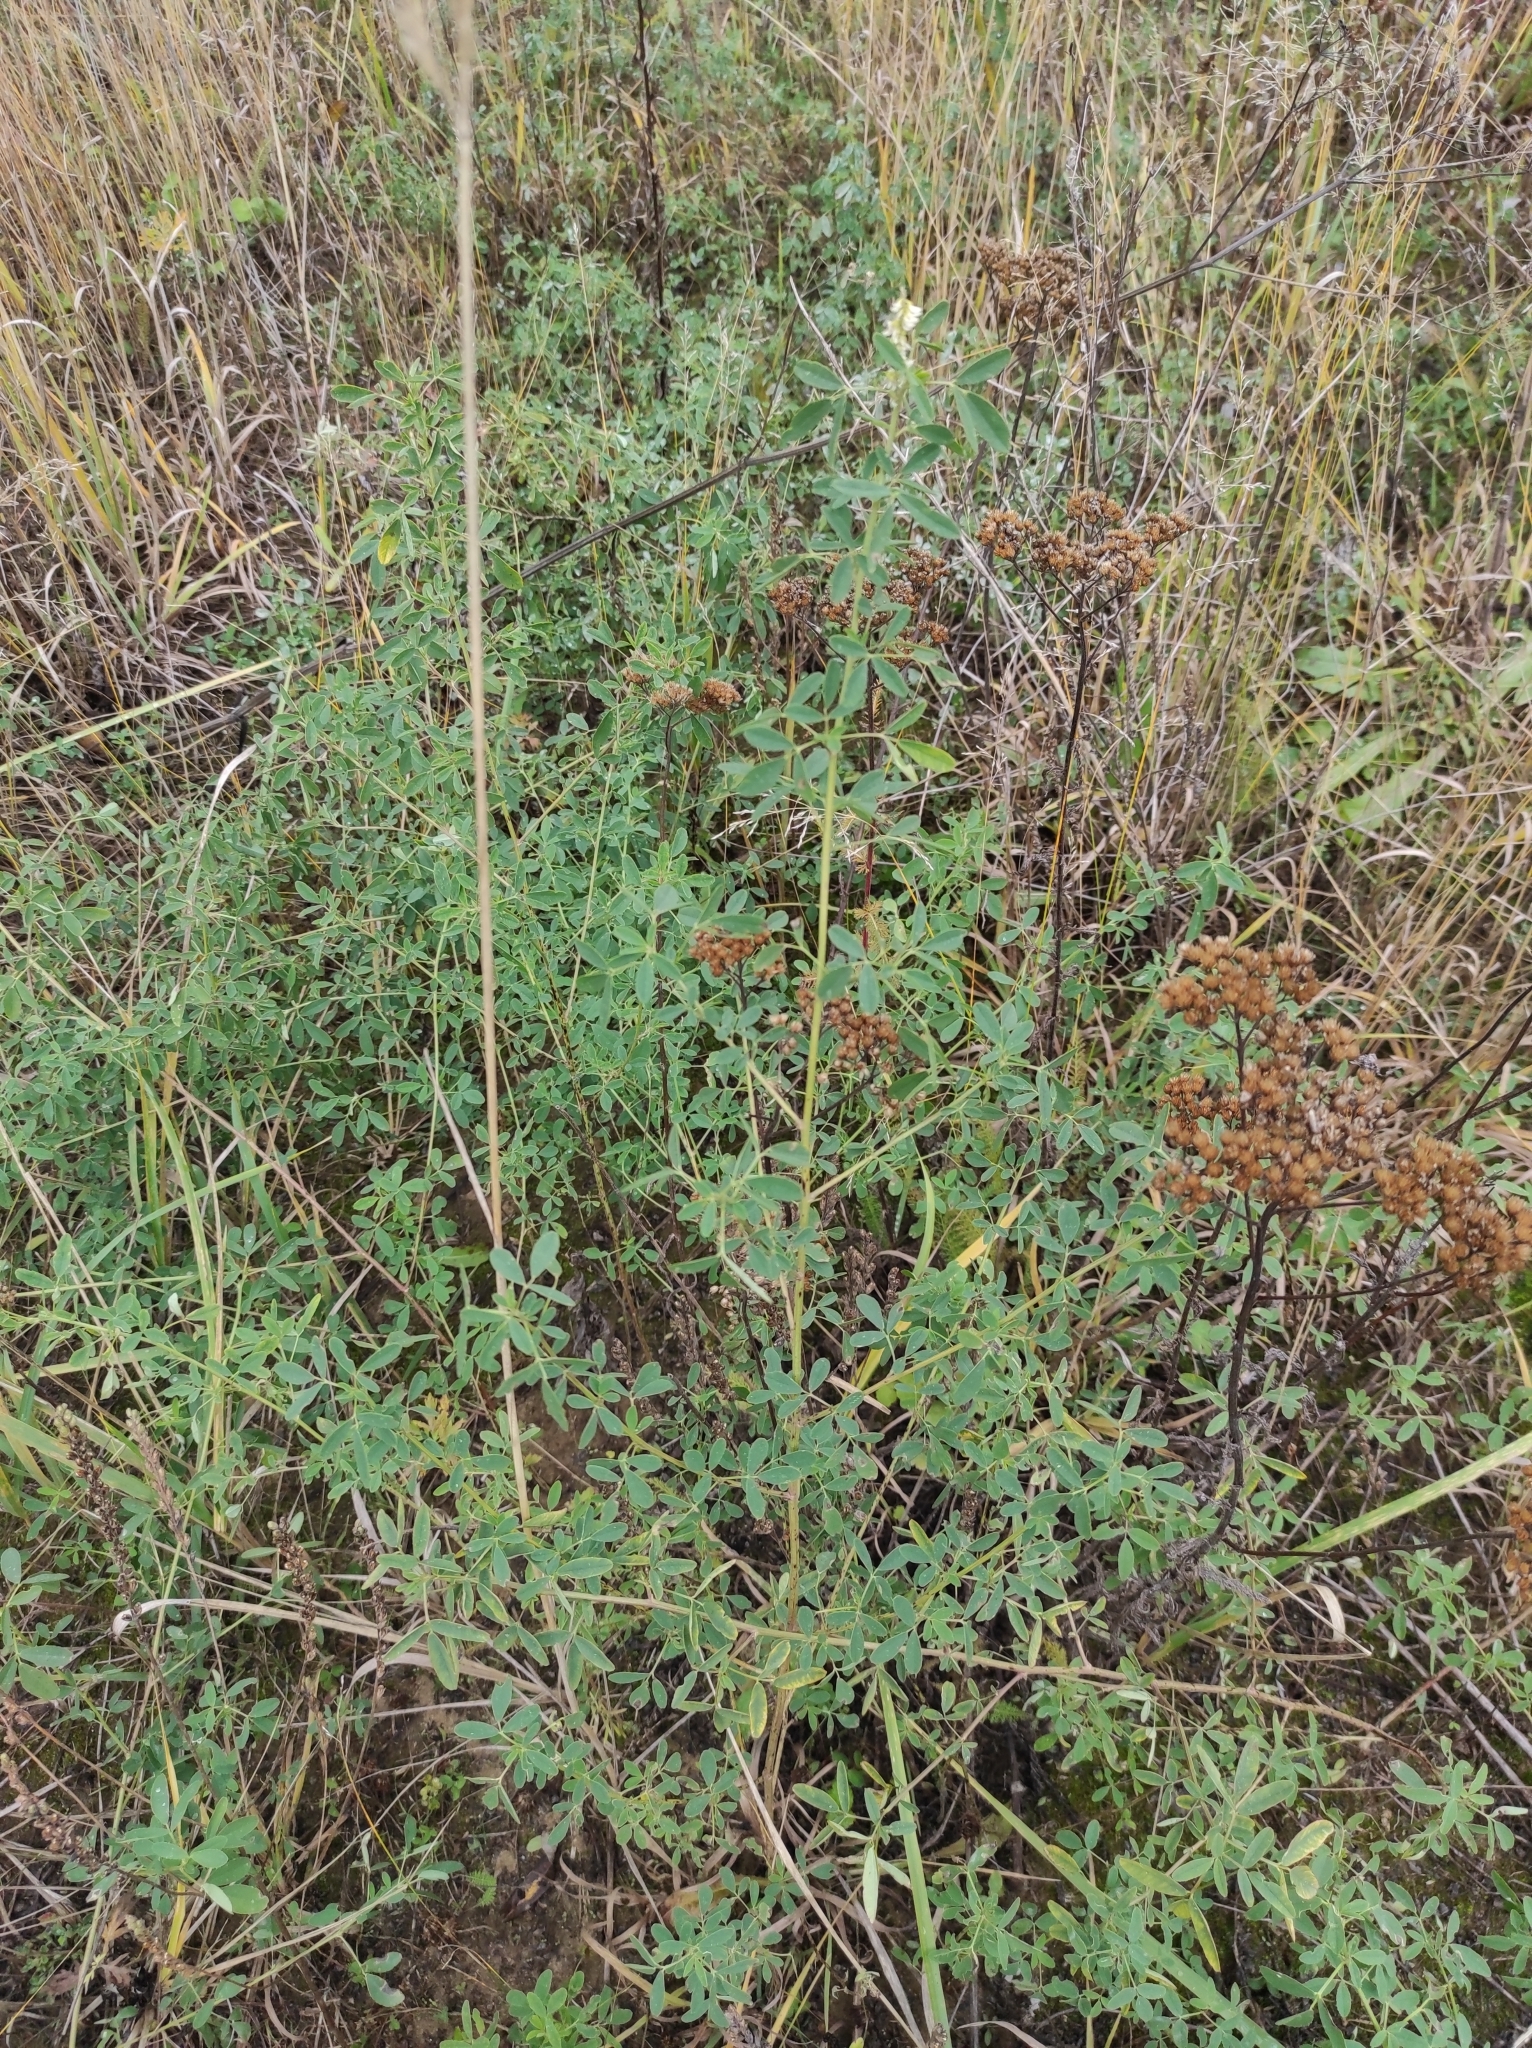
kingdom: Plantae
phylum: Tracheophyta
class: Magnoliopsida
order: Fabales
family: Fabaceae
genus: Melilotus
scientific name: Melilotus albus
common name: White melilot
